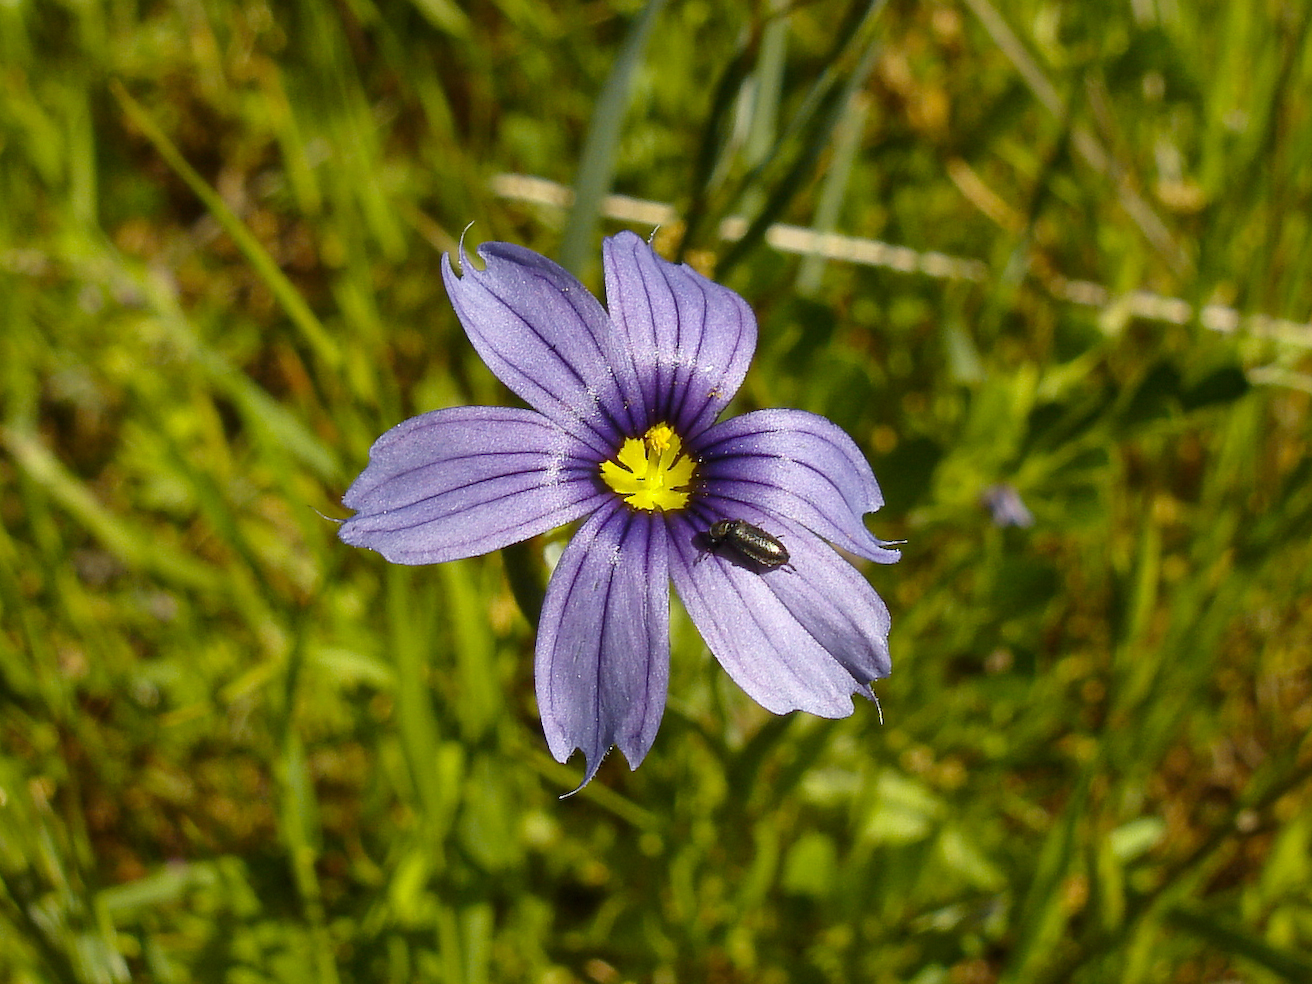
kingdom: Plantae
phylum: Tracheophyta
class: Liliopsida
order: Asparagales
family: Iridaceae
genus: Sisyrinchium
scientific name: Sisyrinchium bellum
